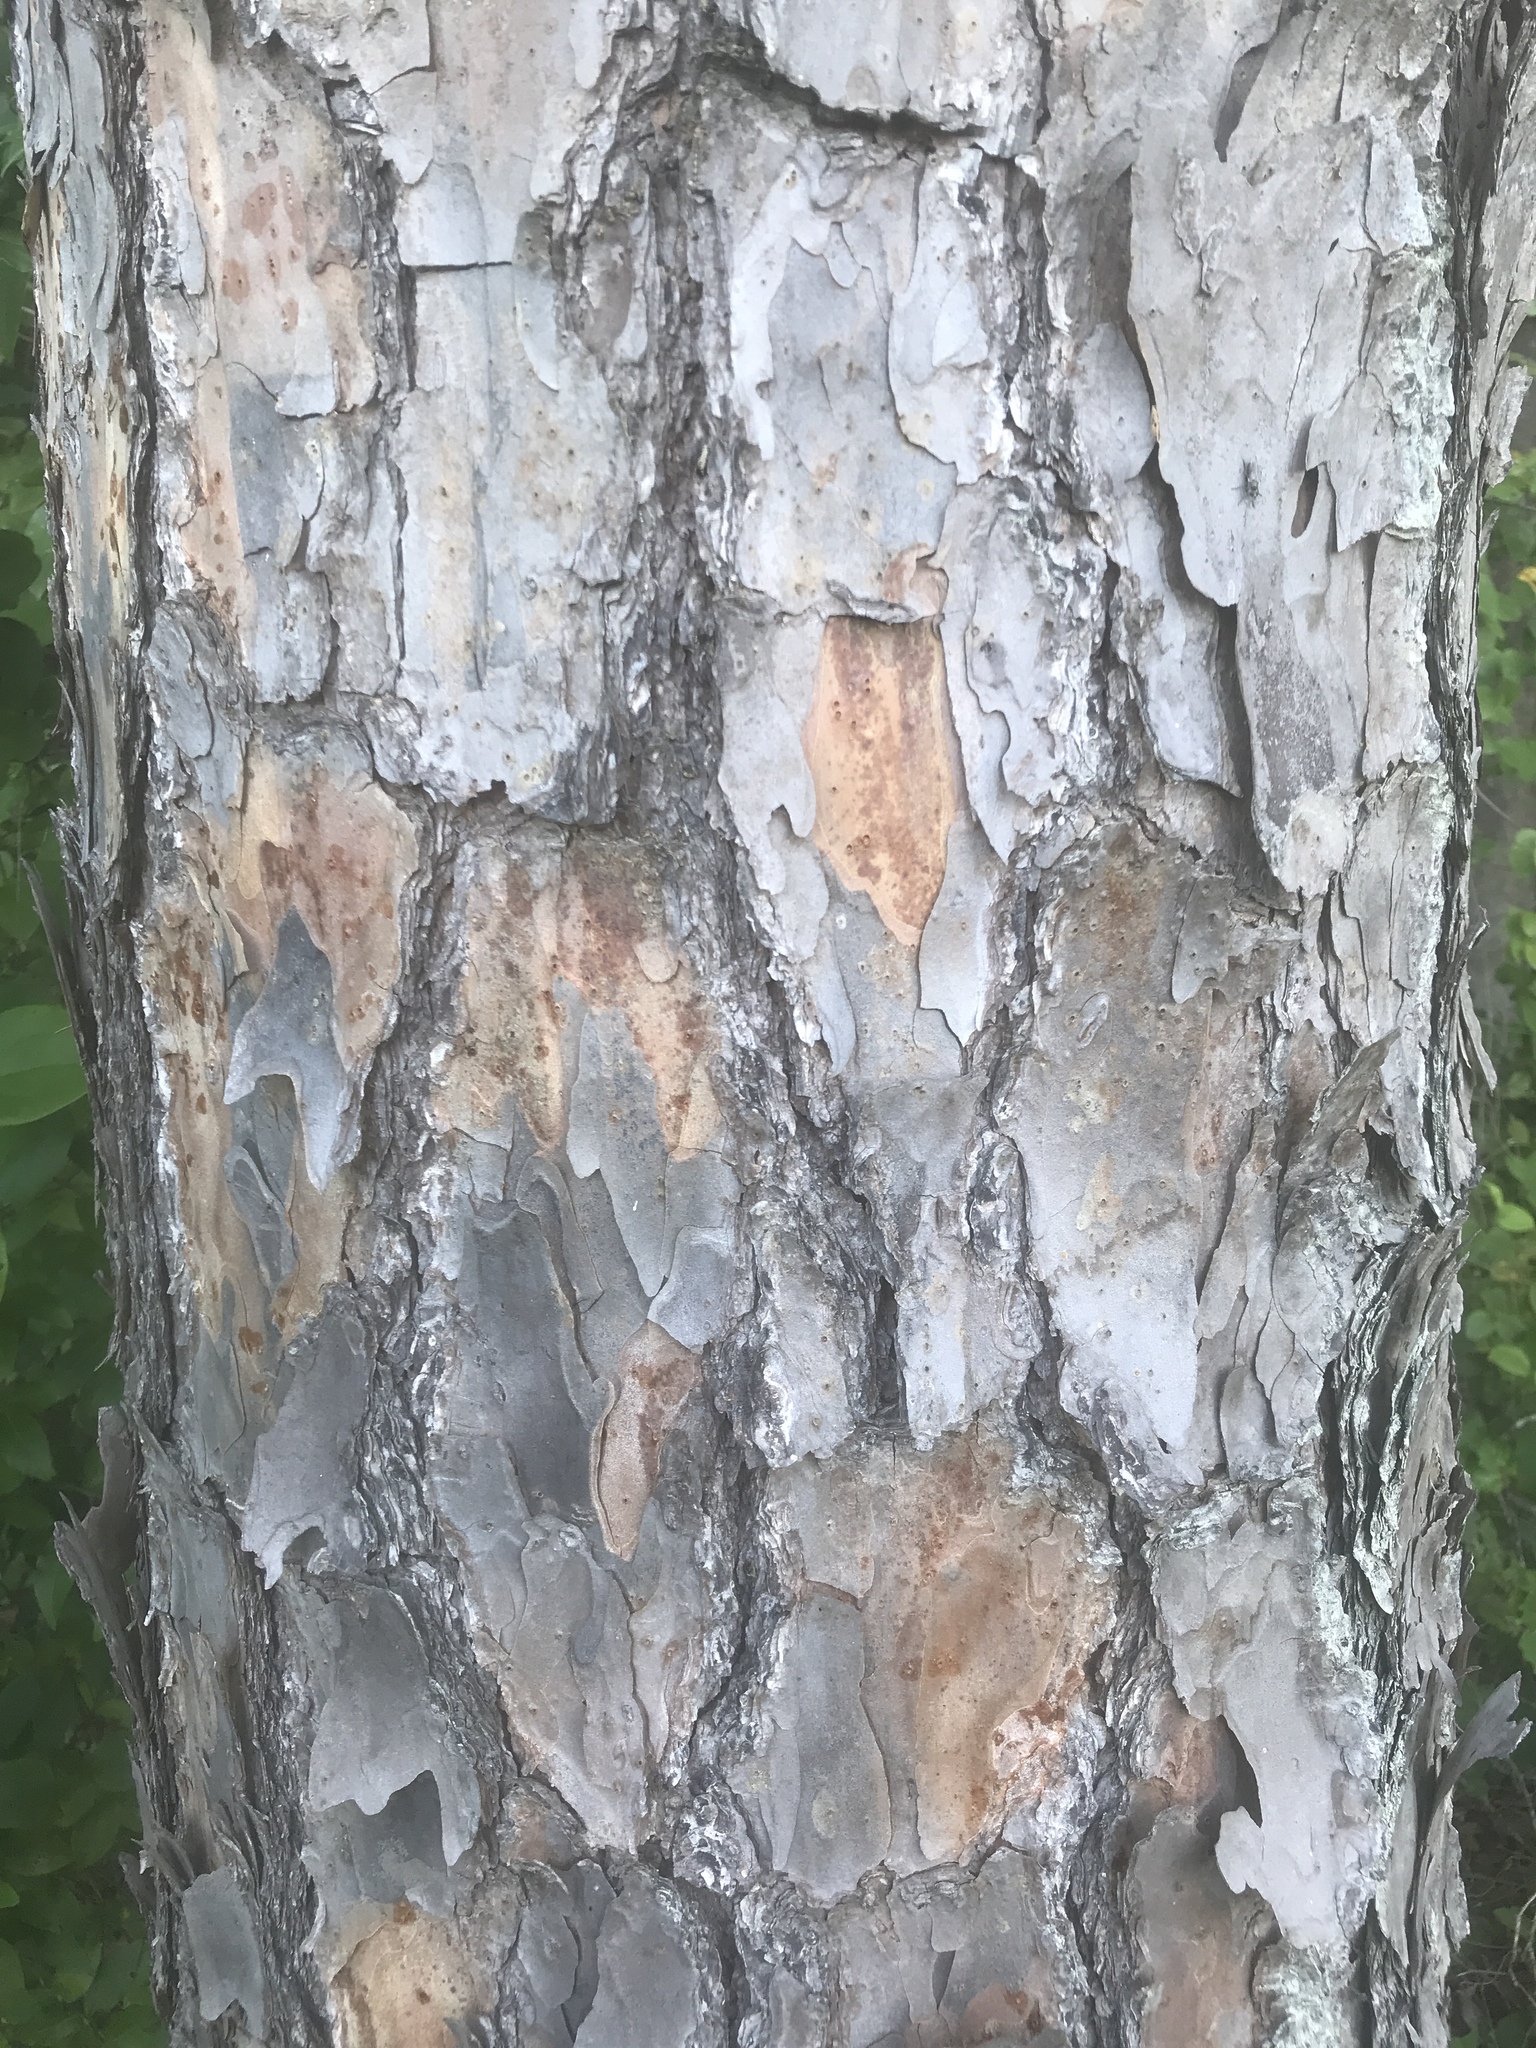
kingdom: Plantae
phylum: Tracheophyta
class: Pinopsida
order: Pinales
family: Pinaceae
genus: Pinus
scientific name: Pinus echinata
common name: Shortleaf pine
